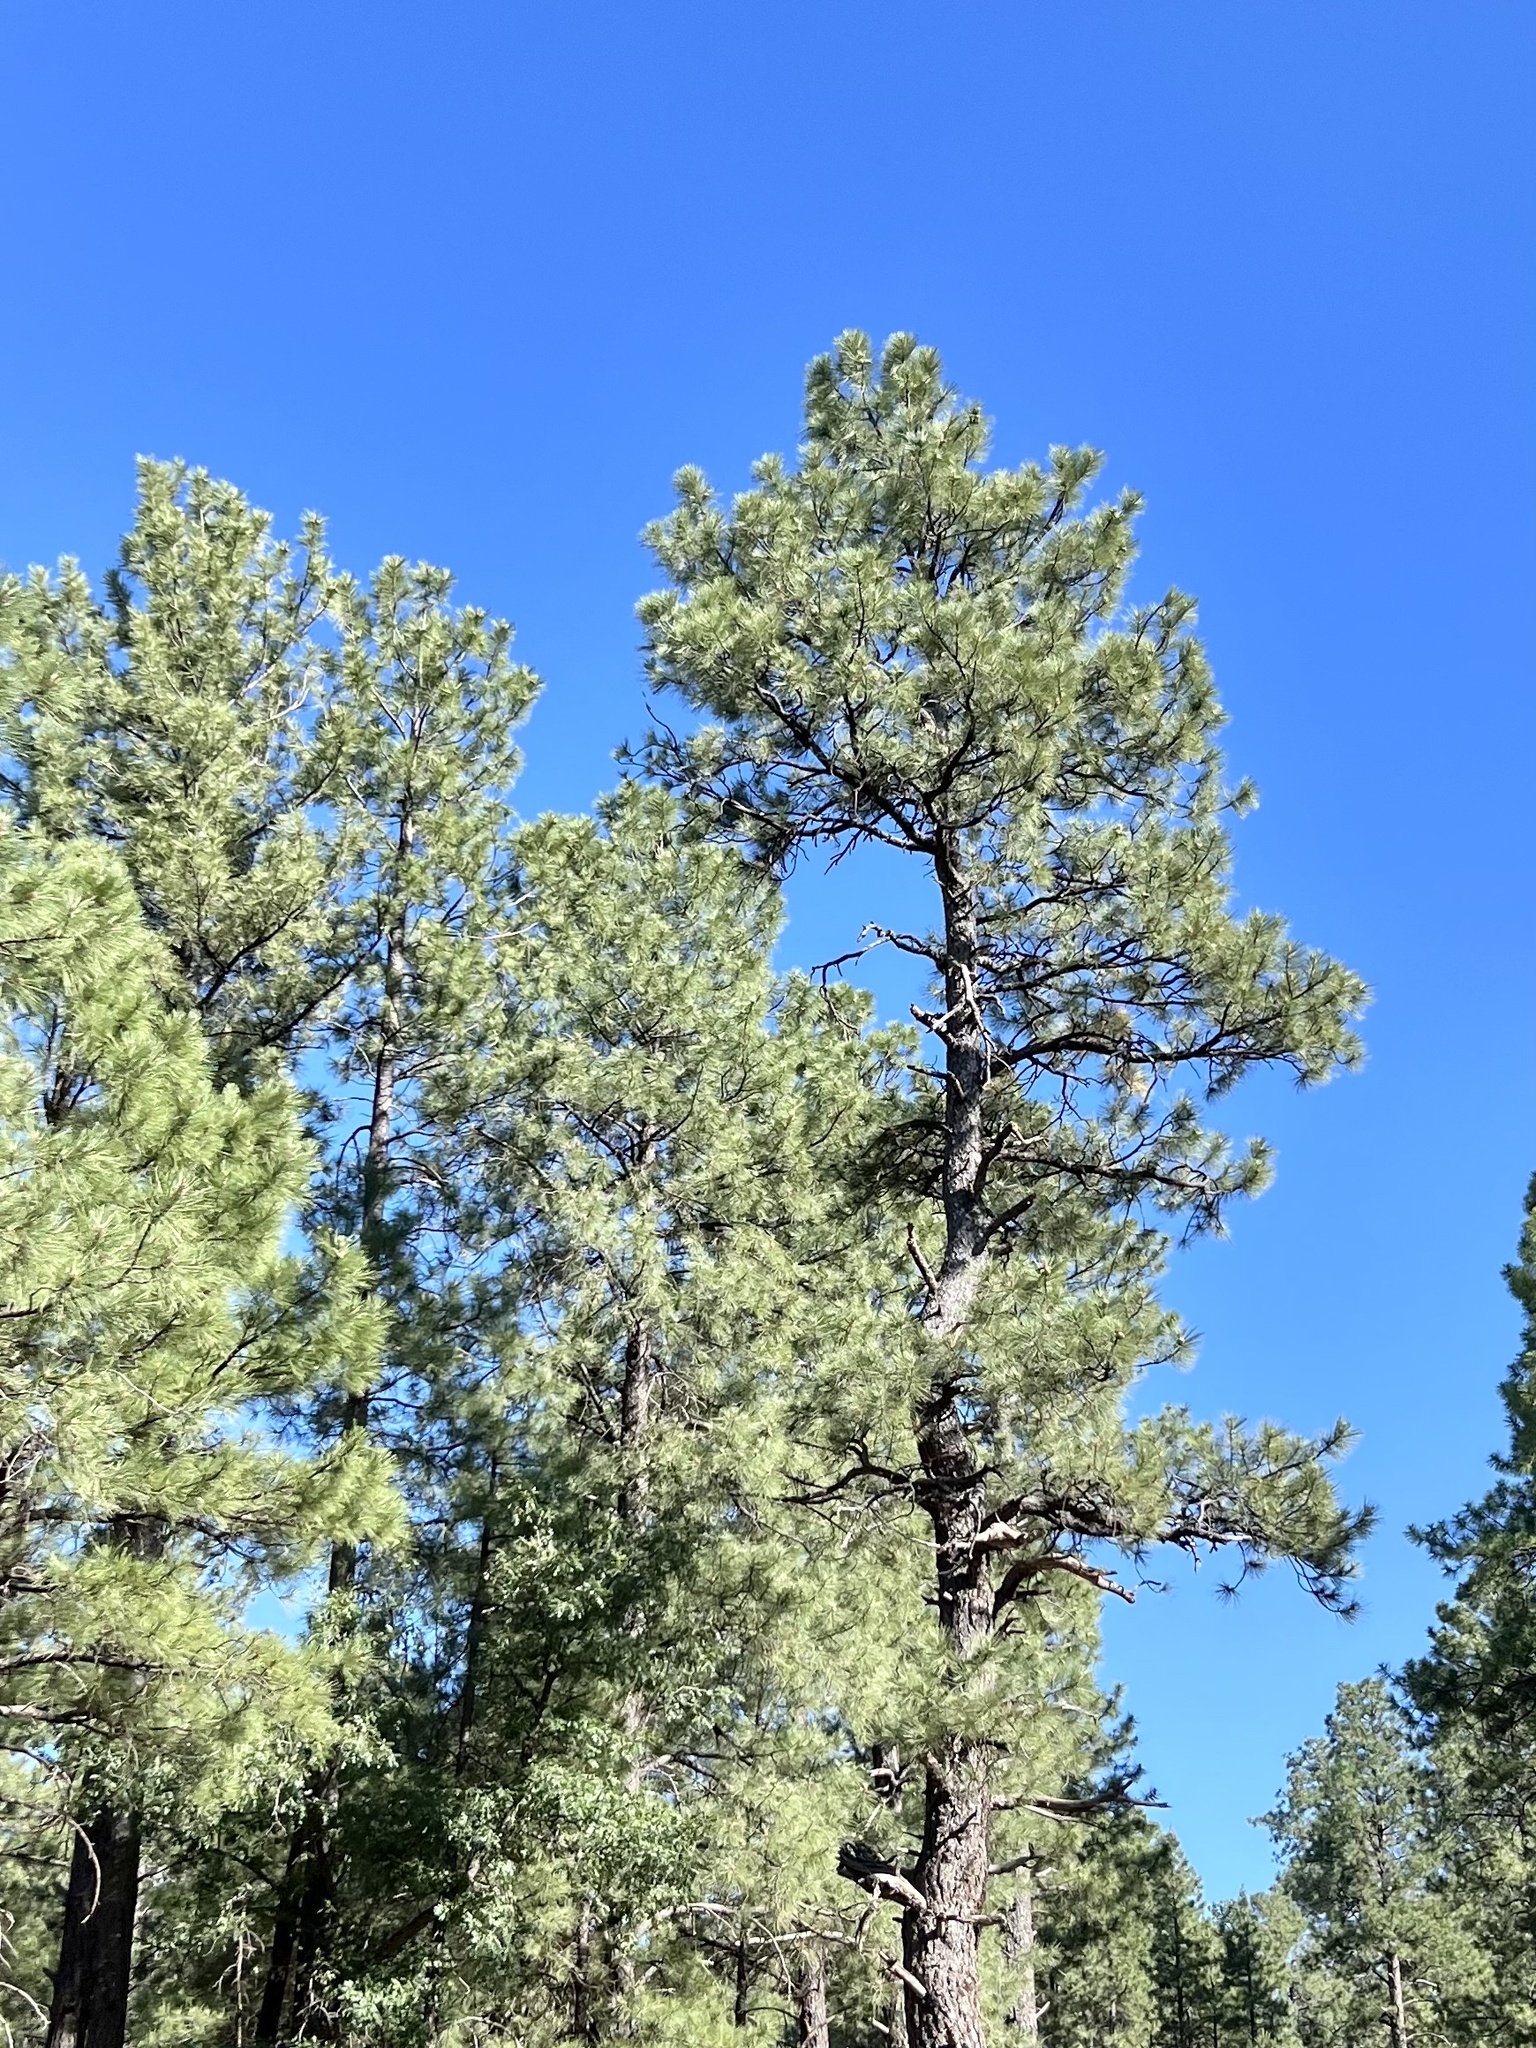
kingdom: Plantae
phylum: Tracheophyta
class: Pinopsida
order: Pinales
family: Pinaceae
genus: Pinus
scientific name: Pinus ponderosa
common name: Western yellow-pine
